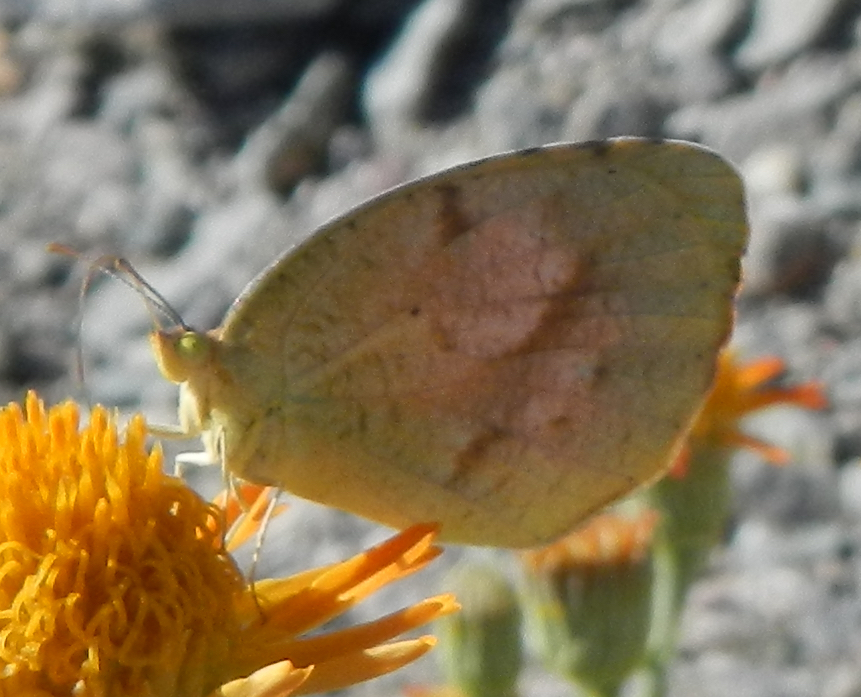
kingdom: Animalia
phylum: Arthropoda
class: Insecta
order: Lepidoptera
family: Pieridae
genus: Abaeis
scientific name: Abaeis nicippe
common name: Sleepy orange
